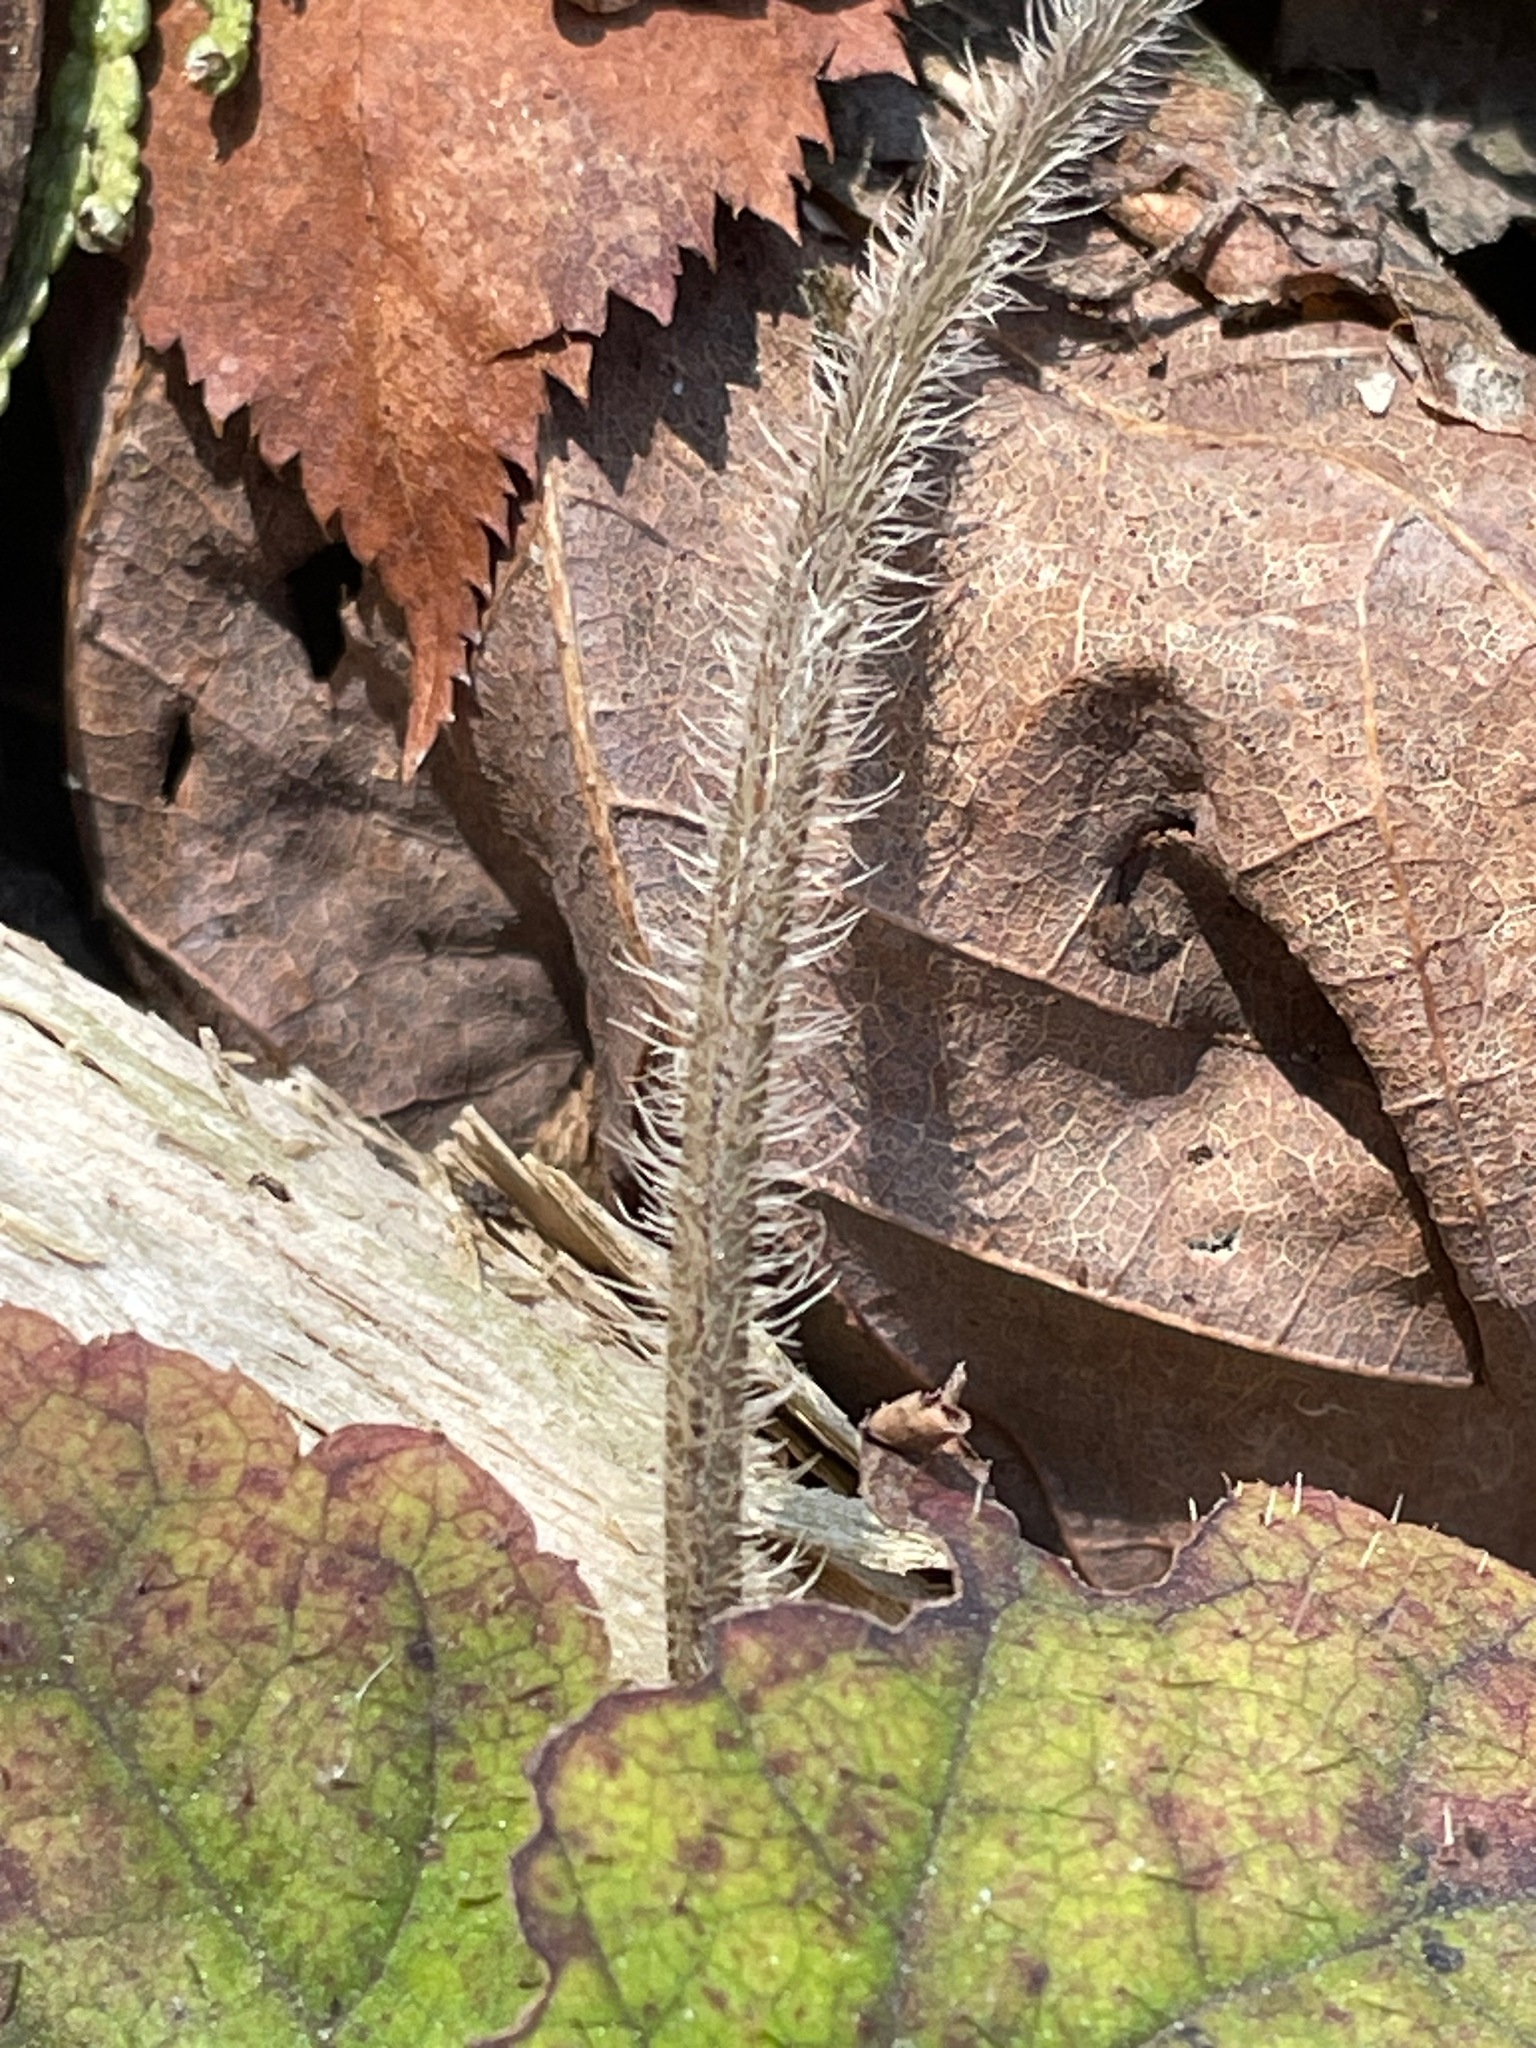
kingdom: Plantae
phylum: Tracheophyta
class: Magnoliopsida
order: Saxifragales
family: Saxifragaceae
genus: Tiarella
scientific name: Tiarella stolonifera
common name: Stoloniferous foamflower
